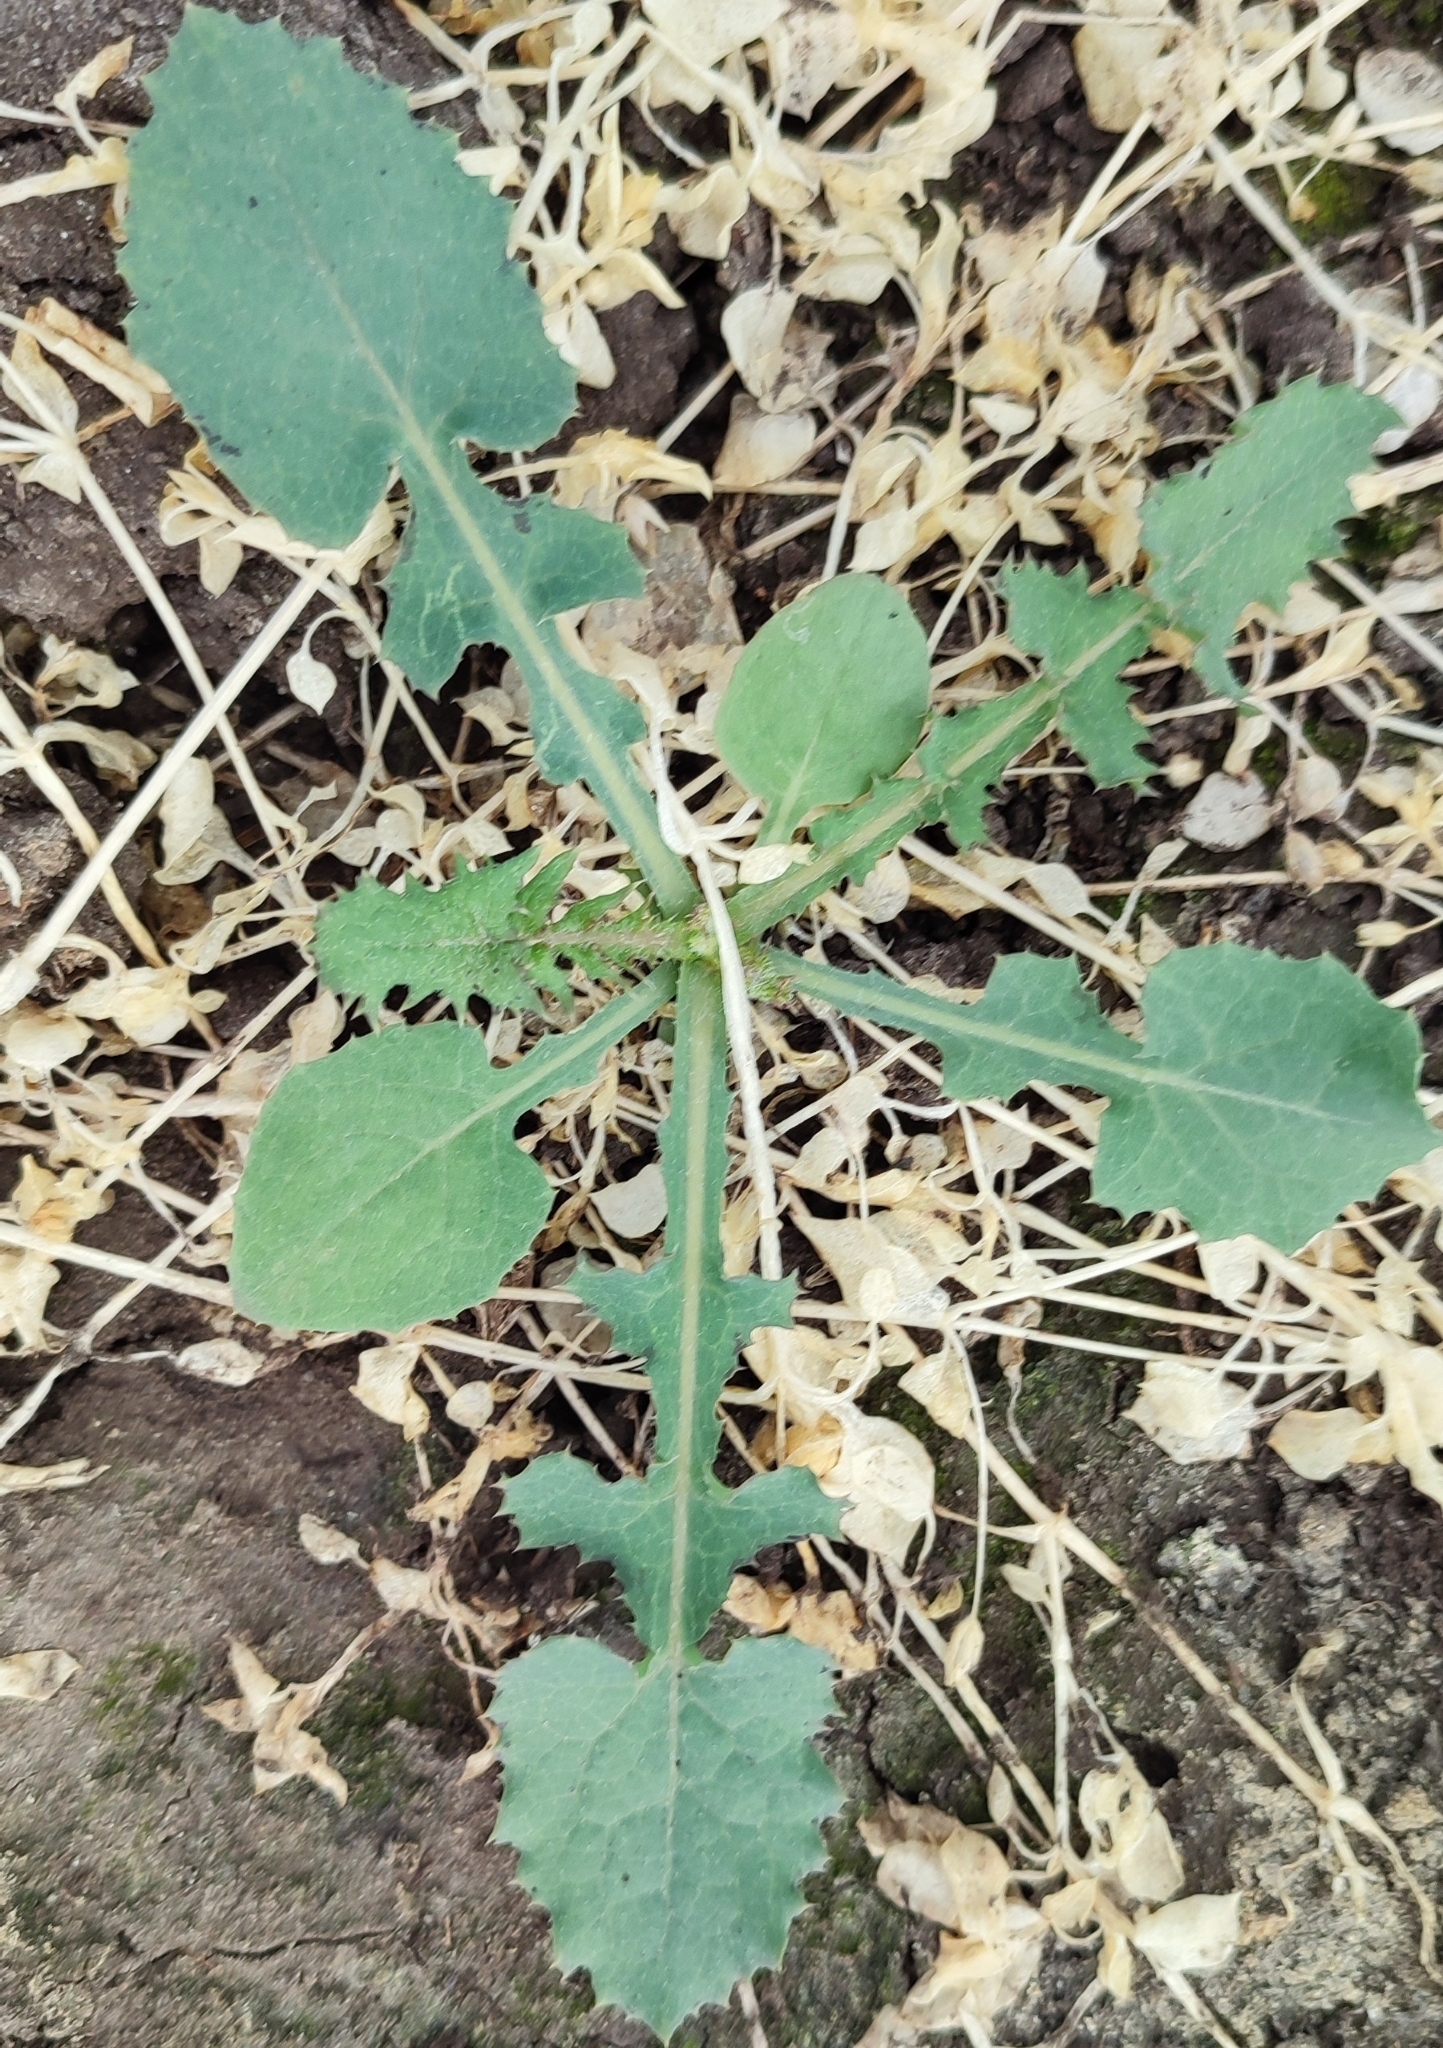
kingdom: Plantae
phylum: Tracheophyta
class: Magnoliopsida
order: Asterales
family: Asteraceae
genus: Sonchus
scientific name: Sonchus oleraceus
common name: Common sowthistle
